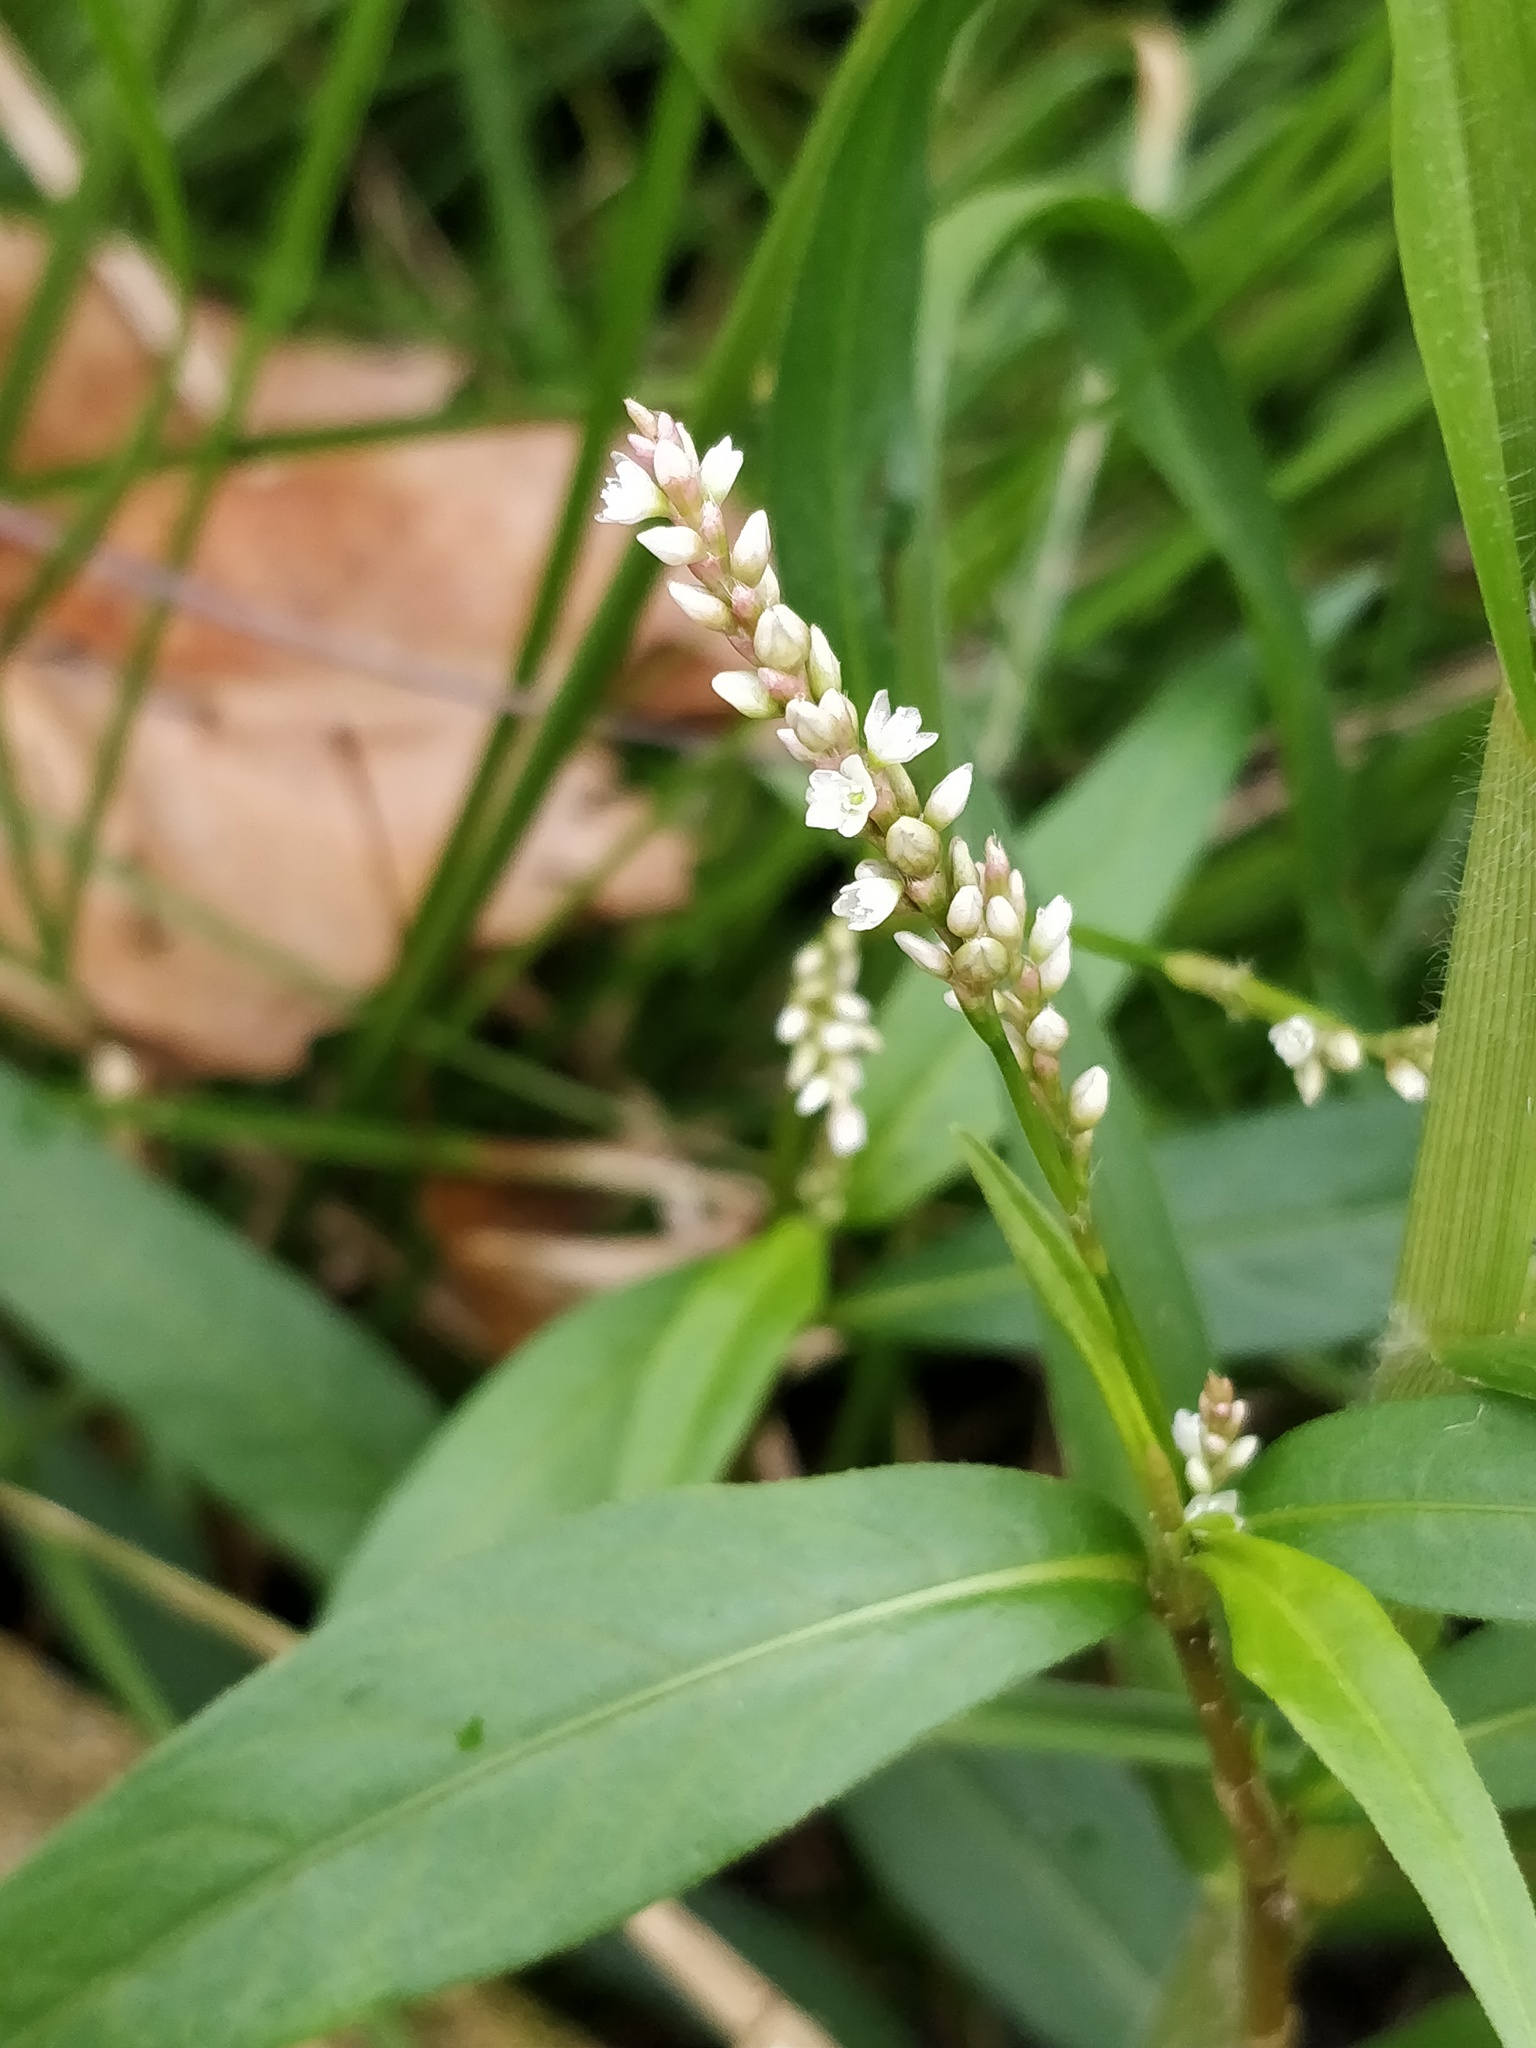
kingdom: Plantae
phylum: Tracheophyta
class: Magnoliopsida
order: Caryophyllales
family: Polygonaceae
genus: Persicaria
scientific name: Persicaria decipiens
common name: Willow-weed
